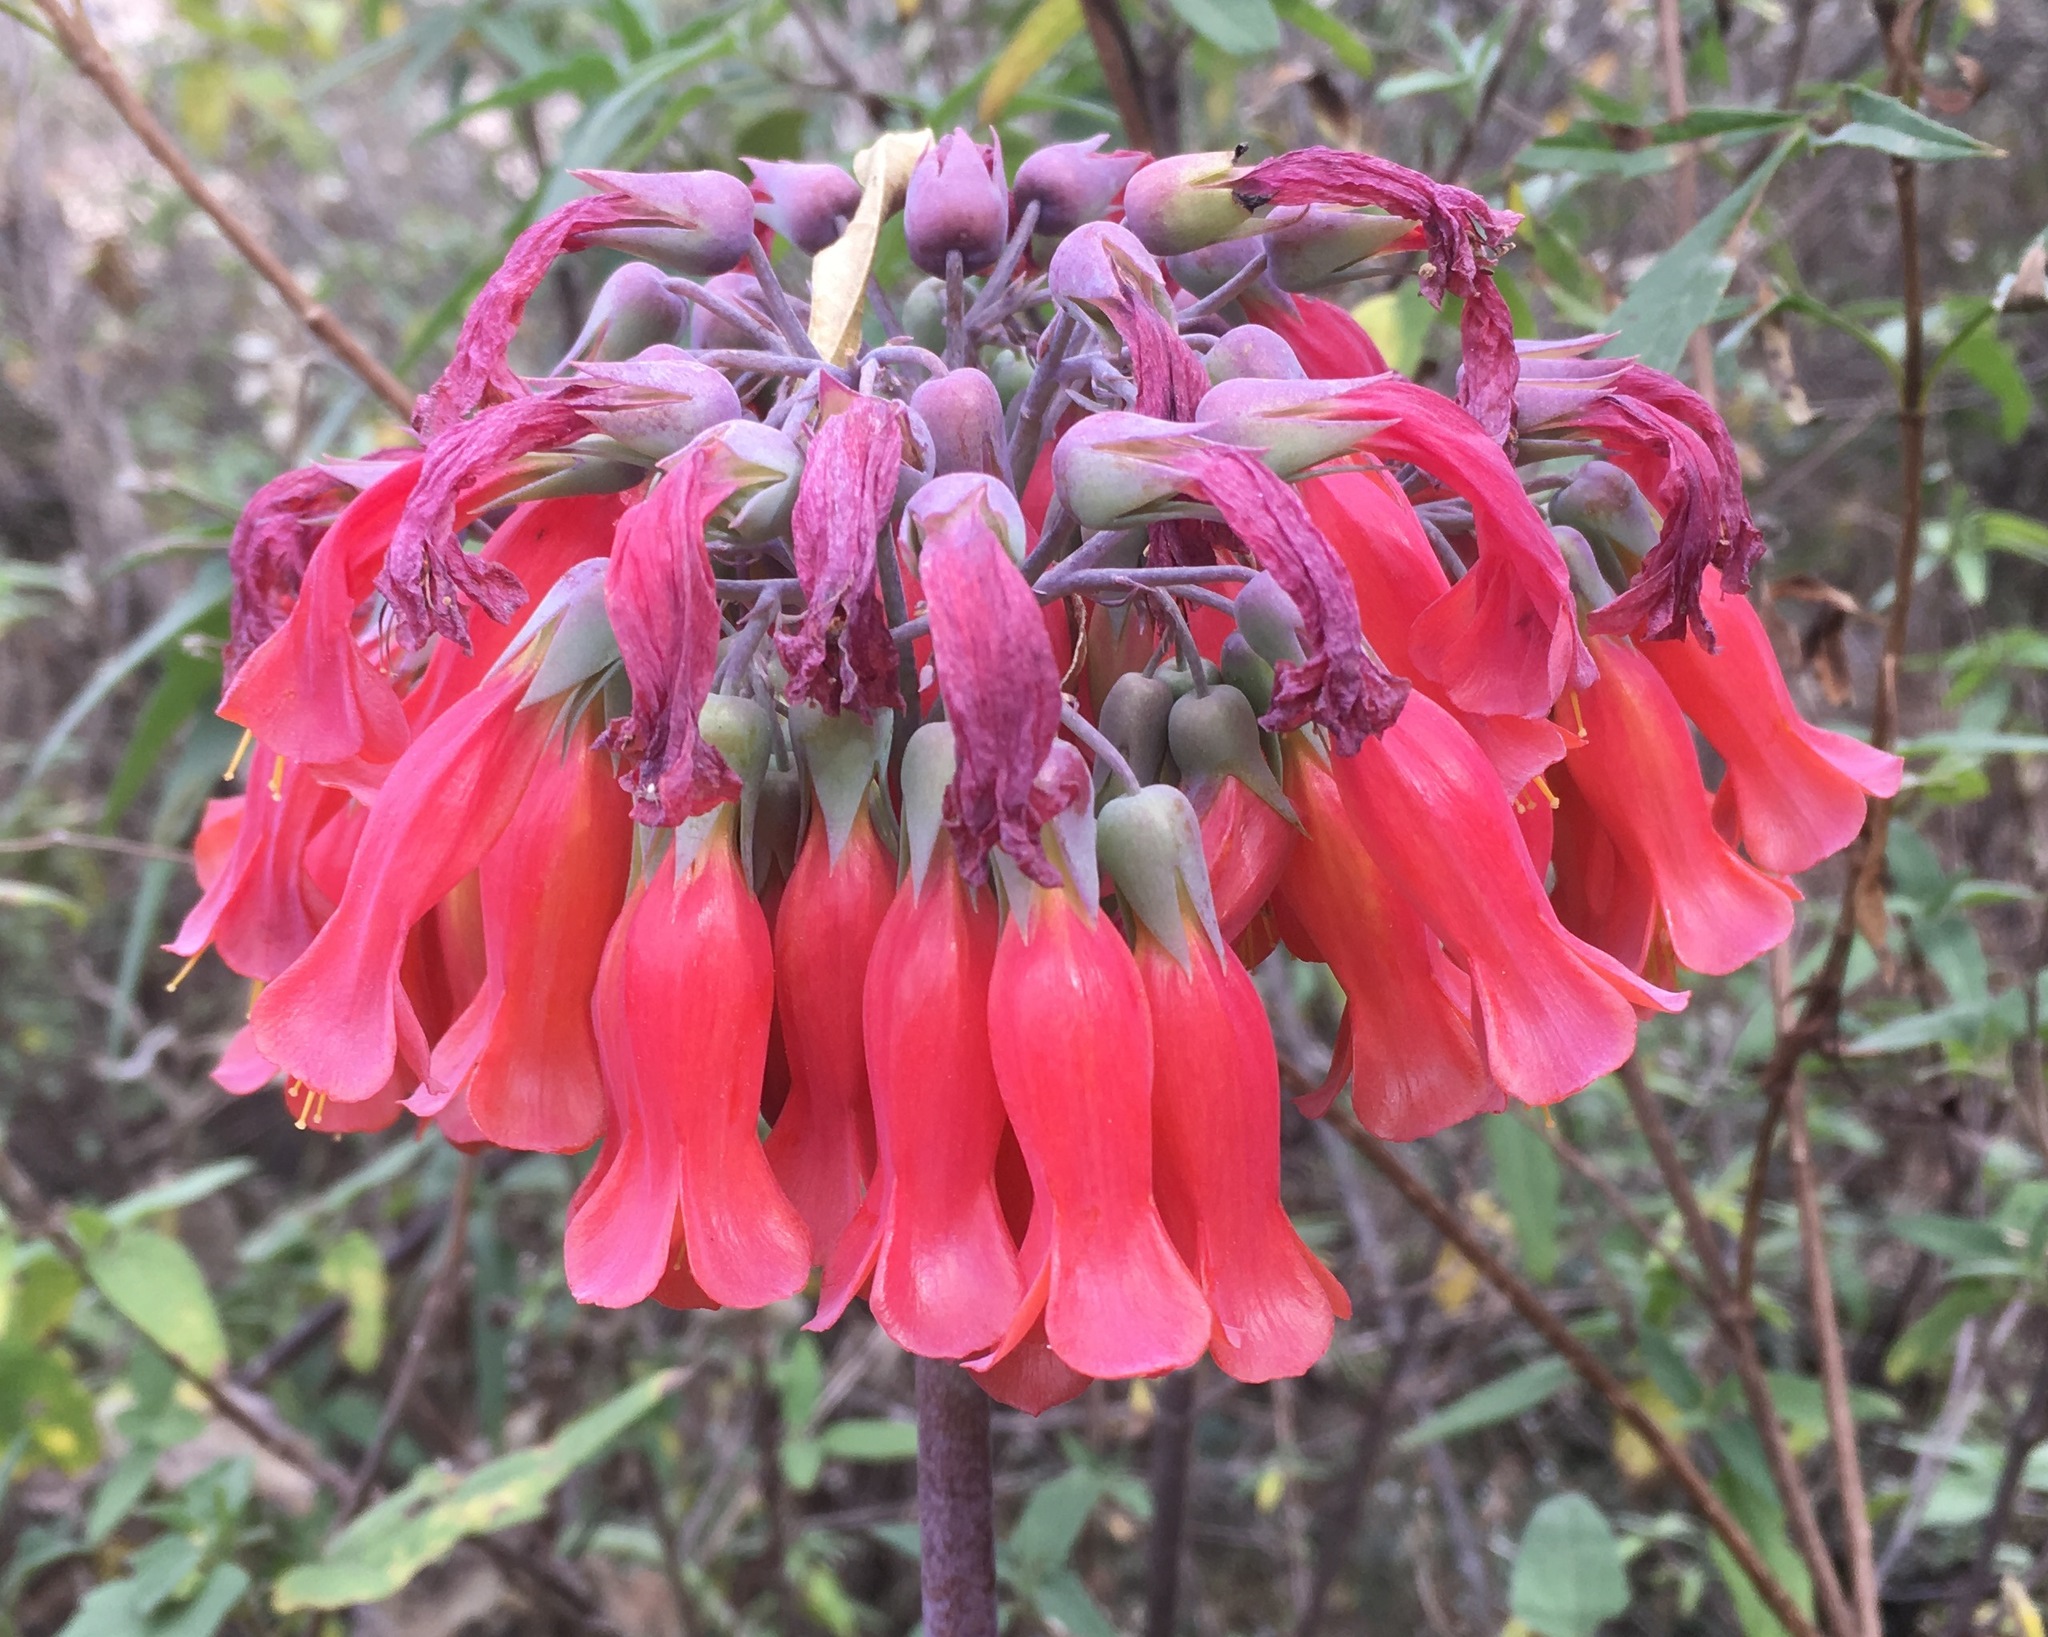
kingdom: Plantae
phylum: Tracheophyta
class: Magnoliopsida
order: Saxifragales
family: Crassulaceae
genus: Kalanchoe
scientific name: Kalanchoe delagoensis
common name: Chandelier plant
